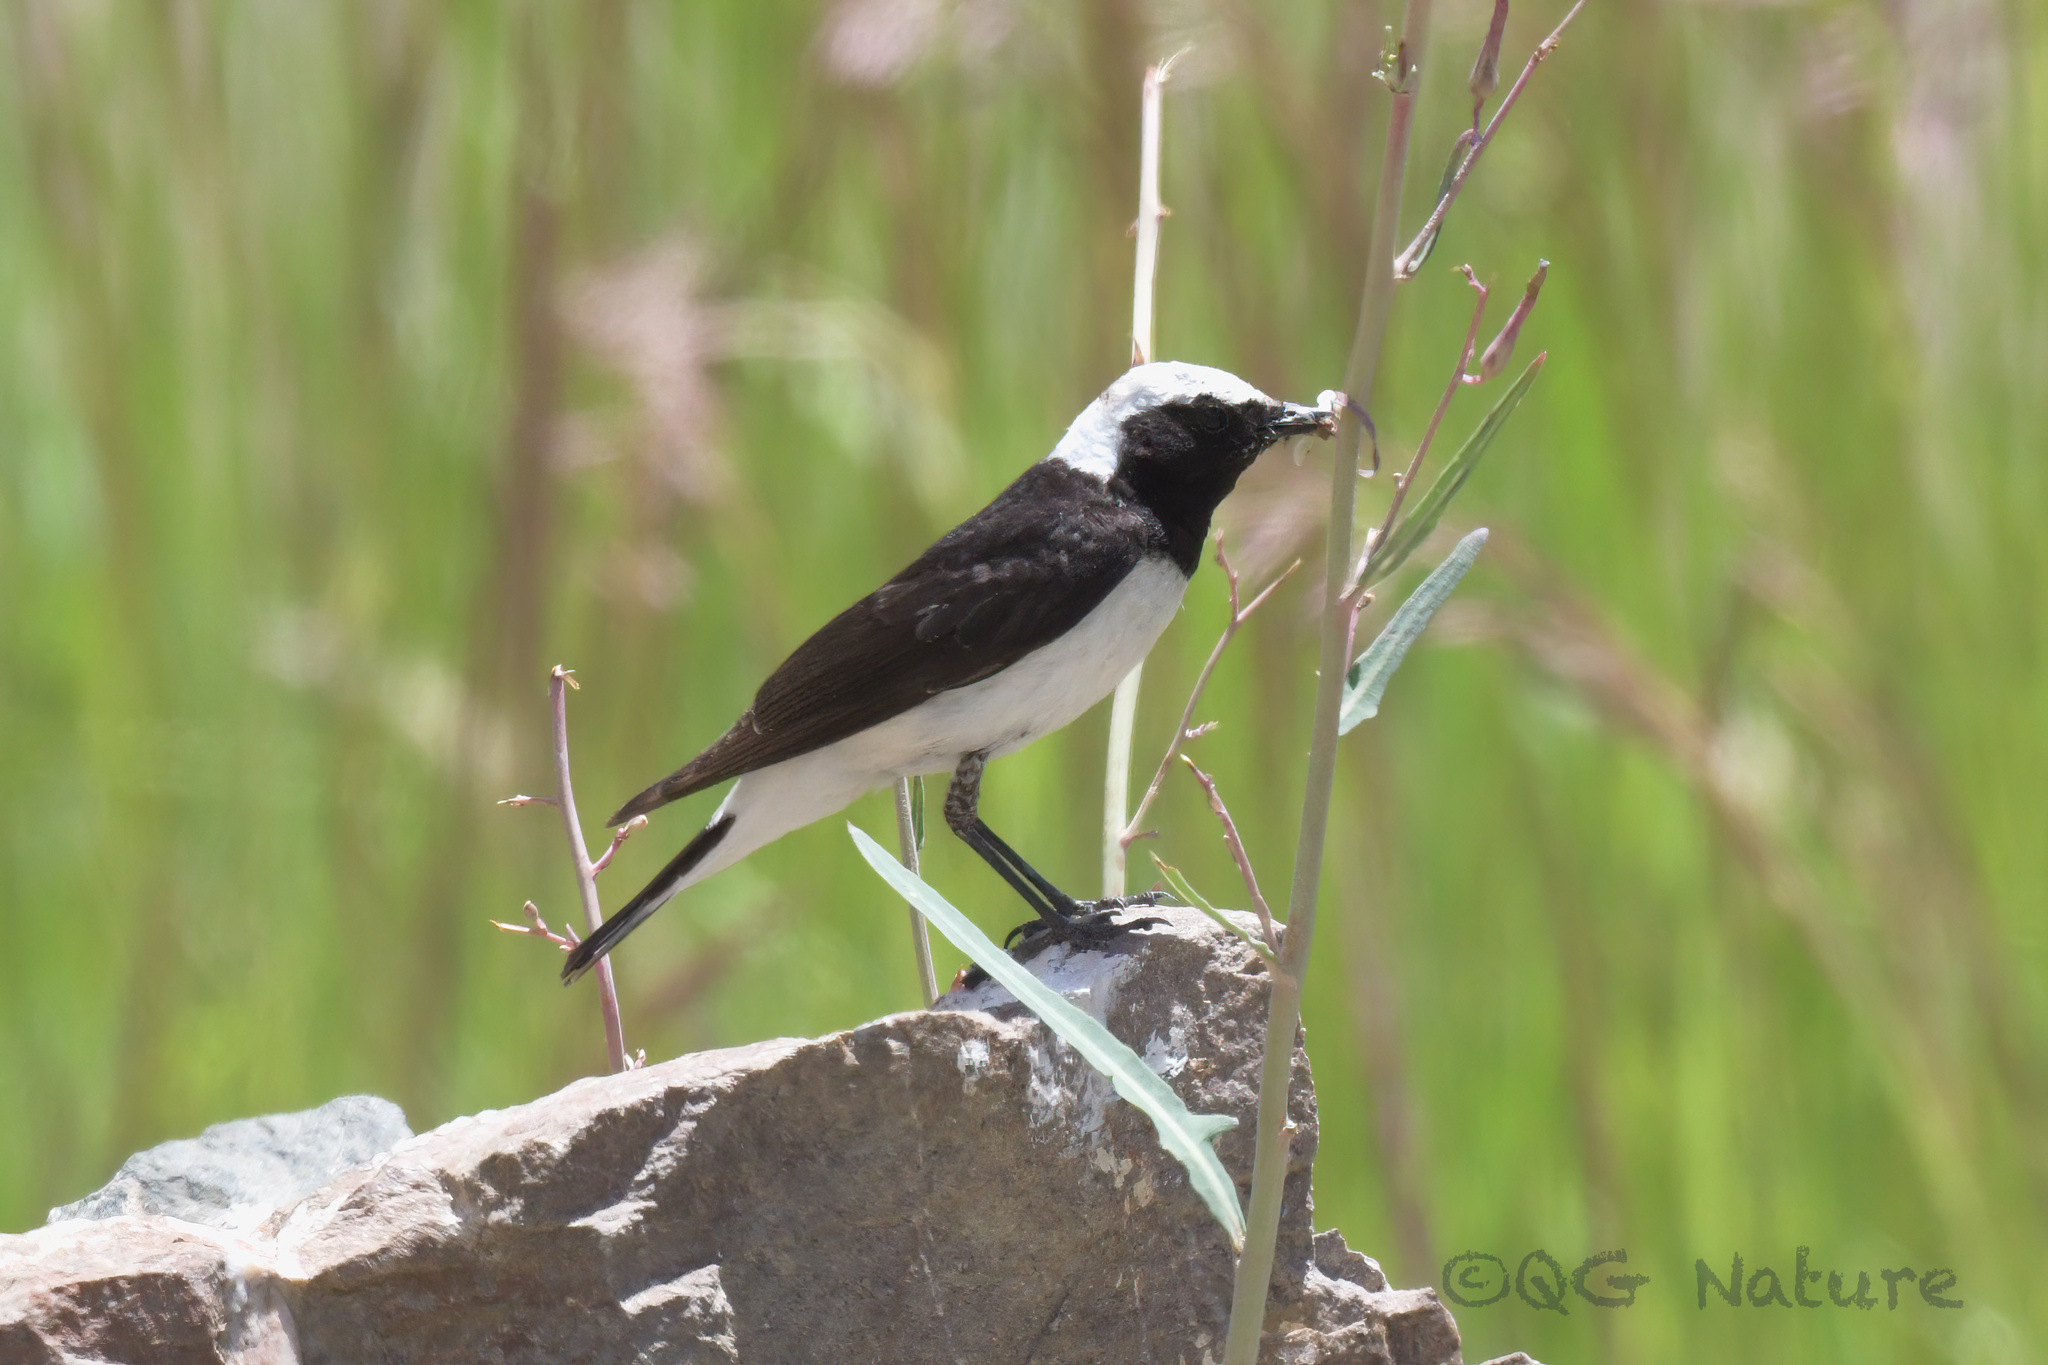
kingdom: Animalia
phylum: Chordata
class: Aves
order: Passeriformes
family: Muscicapidae
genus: Oenanthe
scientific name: Oenanthe pleschanka
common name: Pied wheatear
